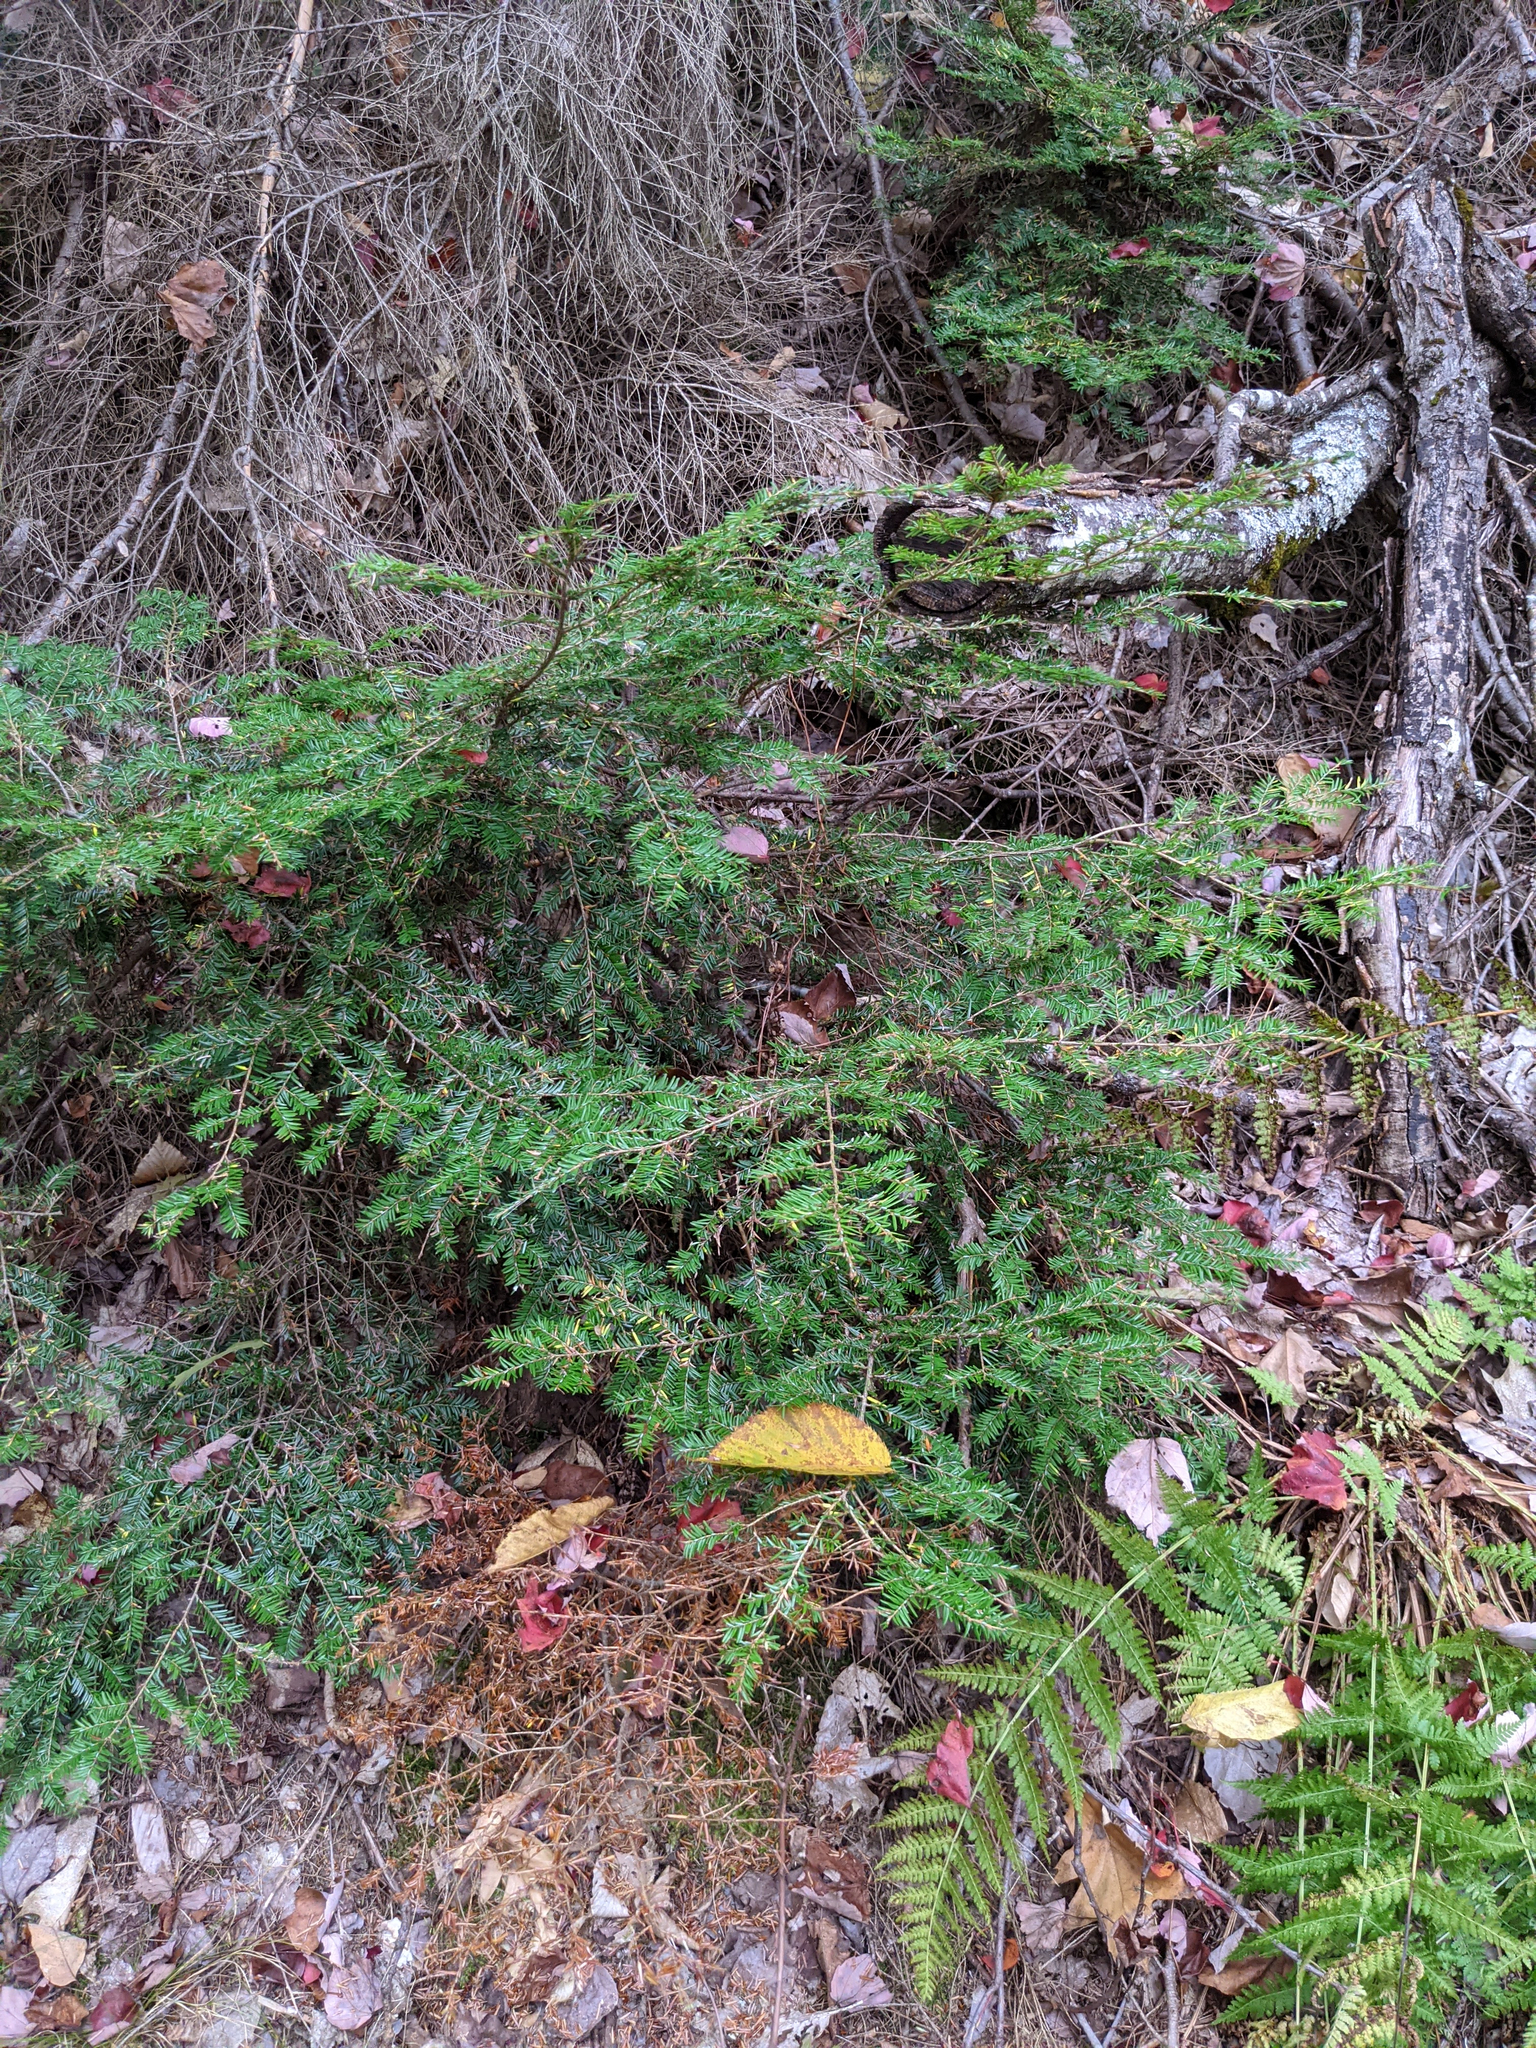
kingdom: Plantae
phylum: Tracheophyta
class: Pinopsida
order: Pinales
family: Pinaceae
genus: Tsuga
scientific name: Tsuga canadensis
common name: Eastern hemlock
